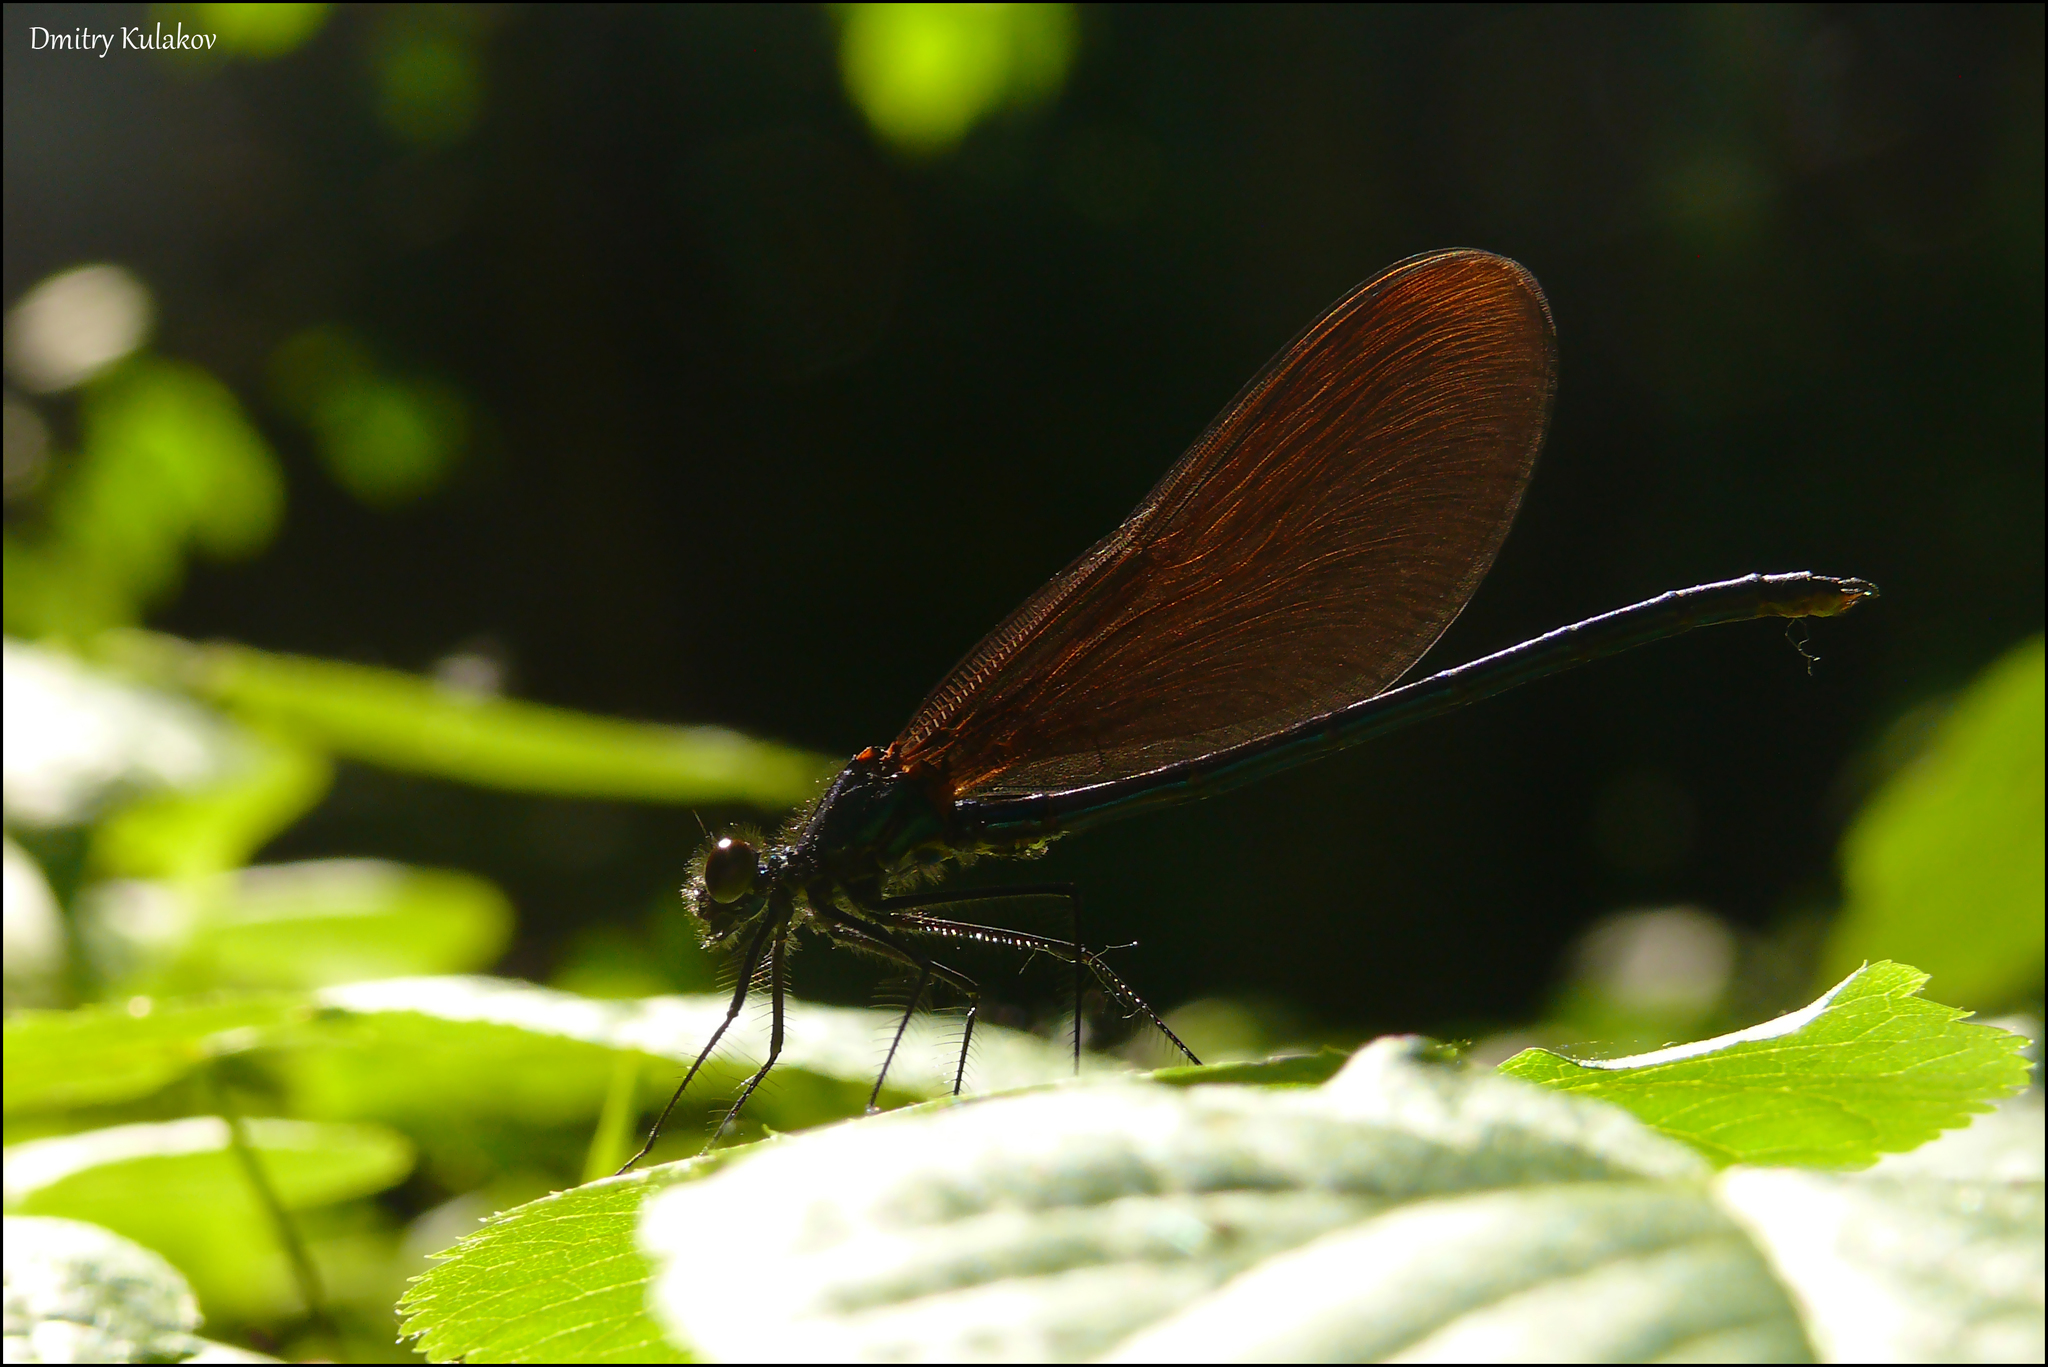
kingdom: Animalia
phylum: Arthropoda
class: Insecta
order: Odonata
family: Calopterygidae
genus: Calopteryx
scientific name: Calopteryx virgo
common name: Beautiful demoiselle
